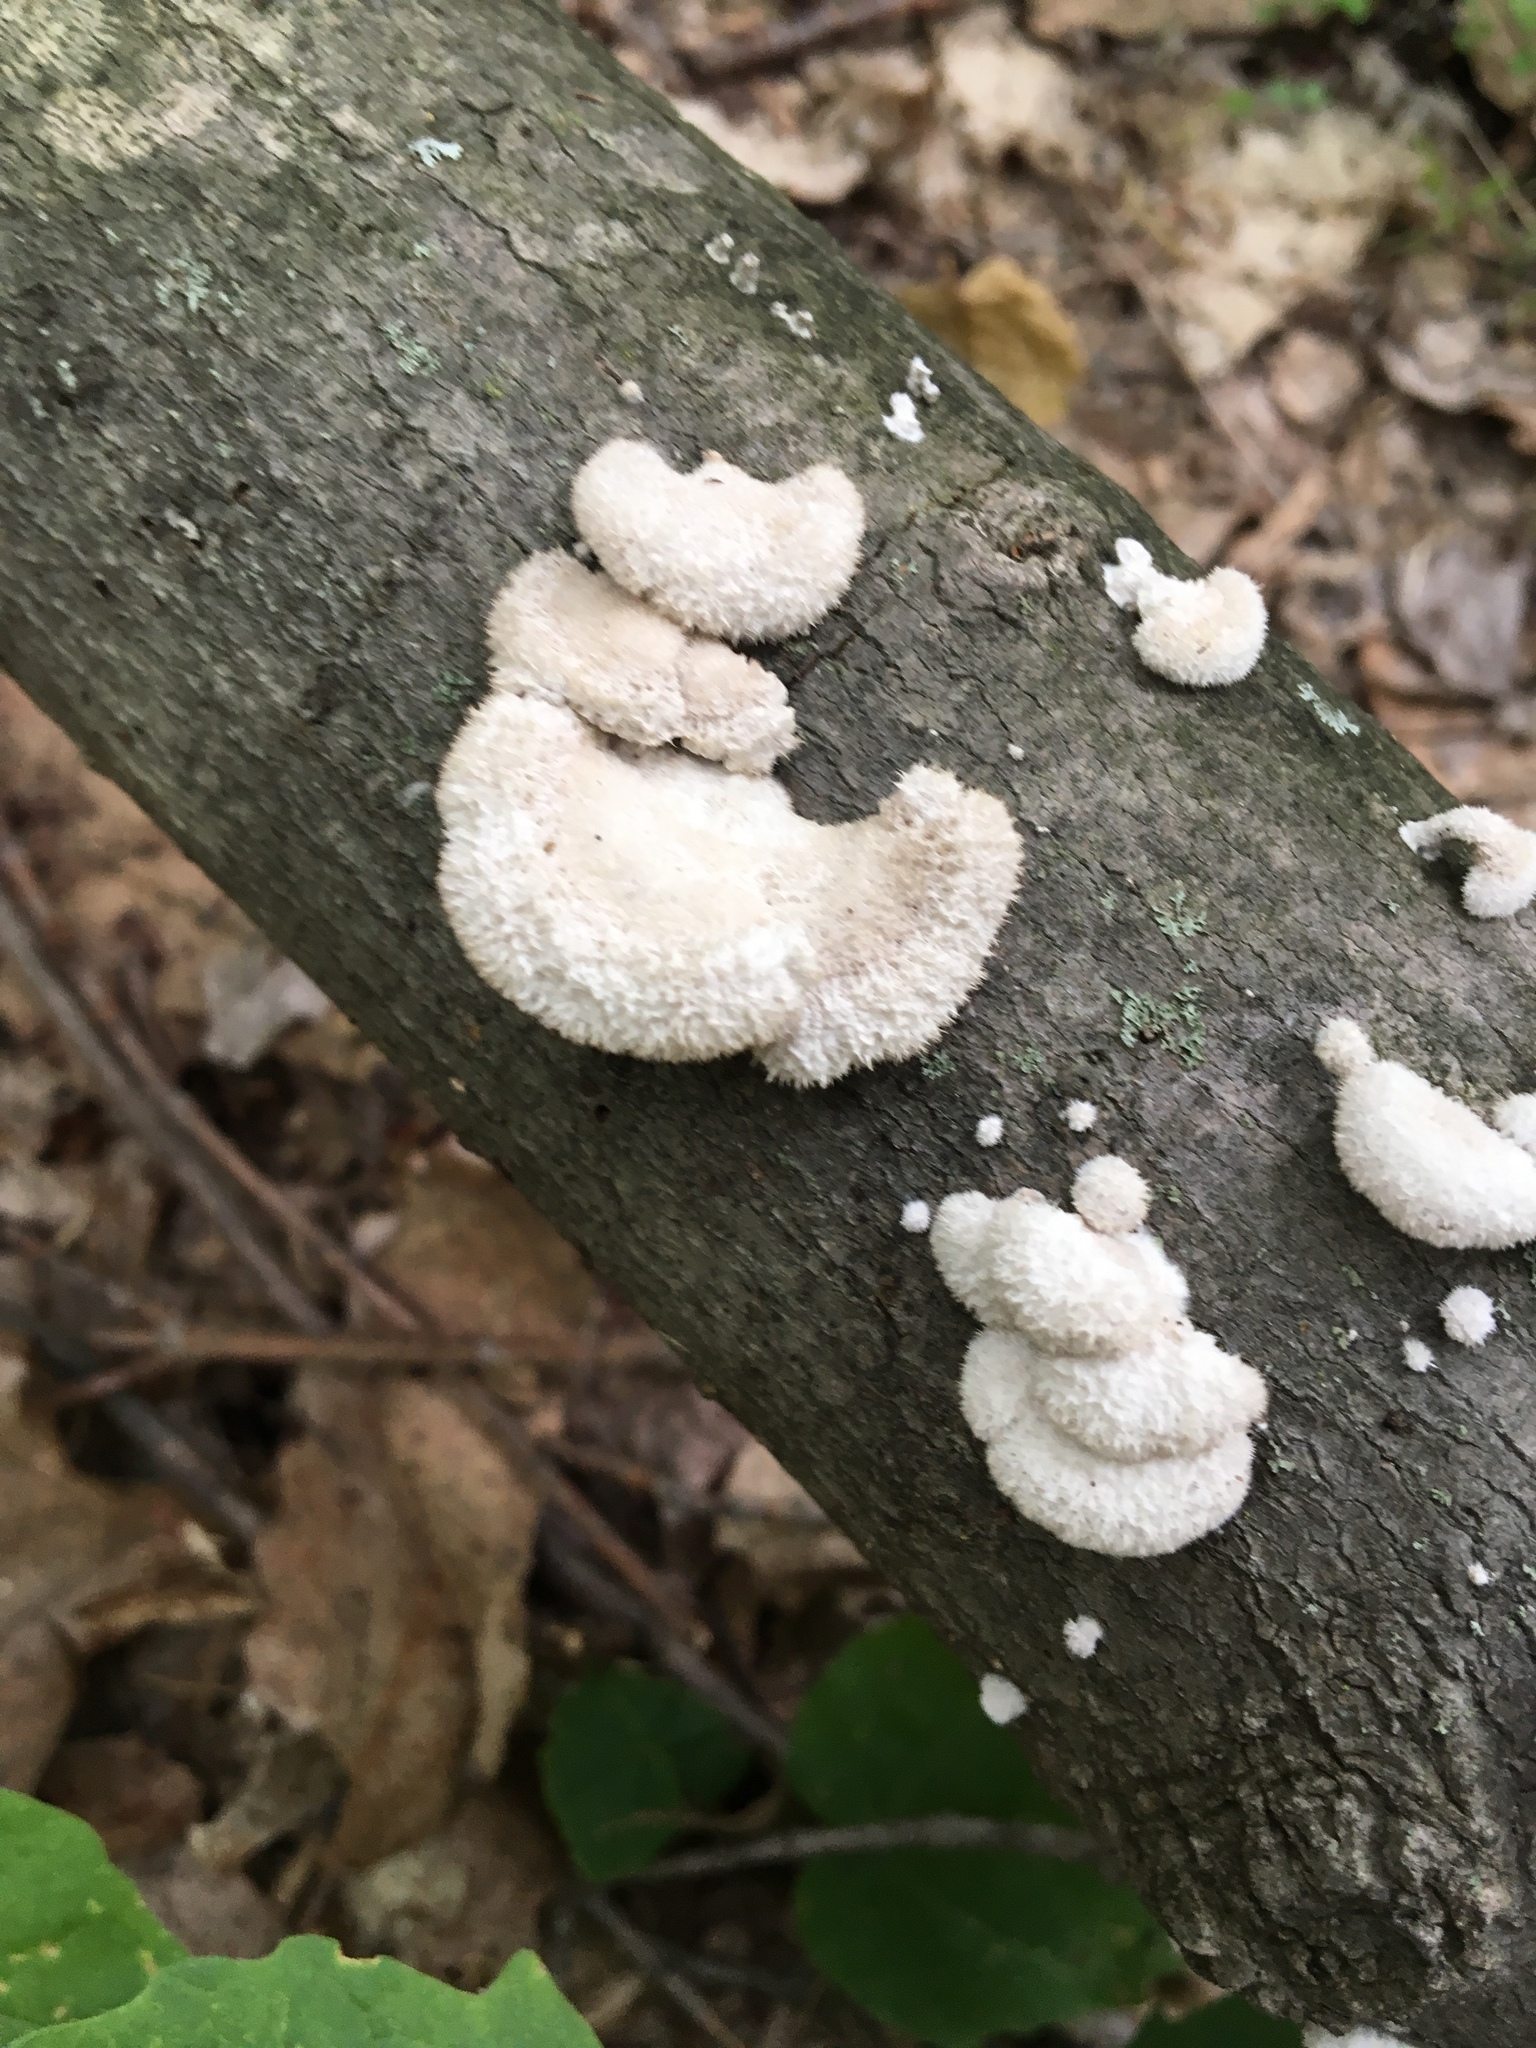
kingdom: Fungi
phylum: Basidiomycota
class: Agaricomycetes
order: Agaricales
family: Schizophyllaceae
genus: Schizophyllum
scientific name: Schizophyllum commune
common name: Common porecrust
